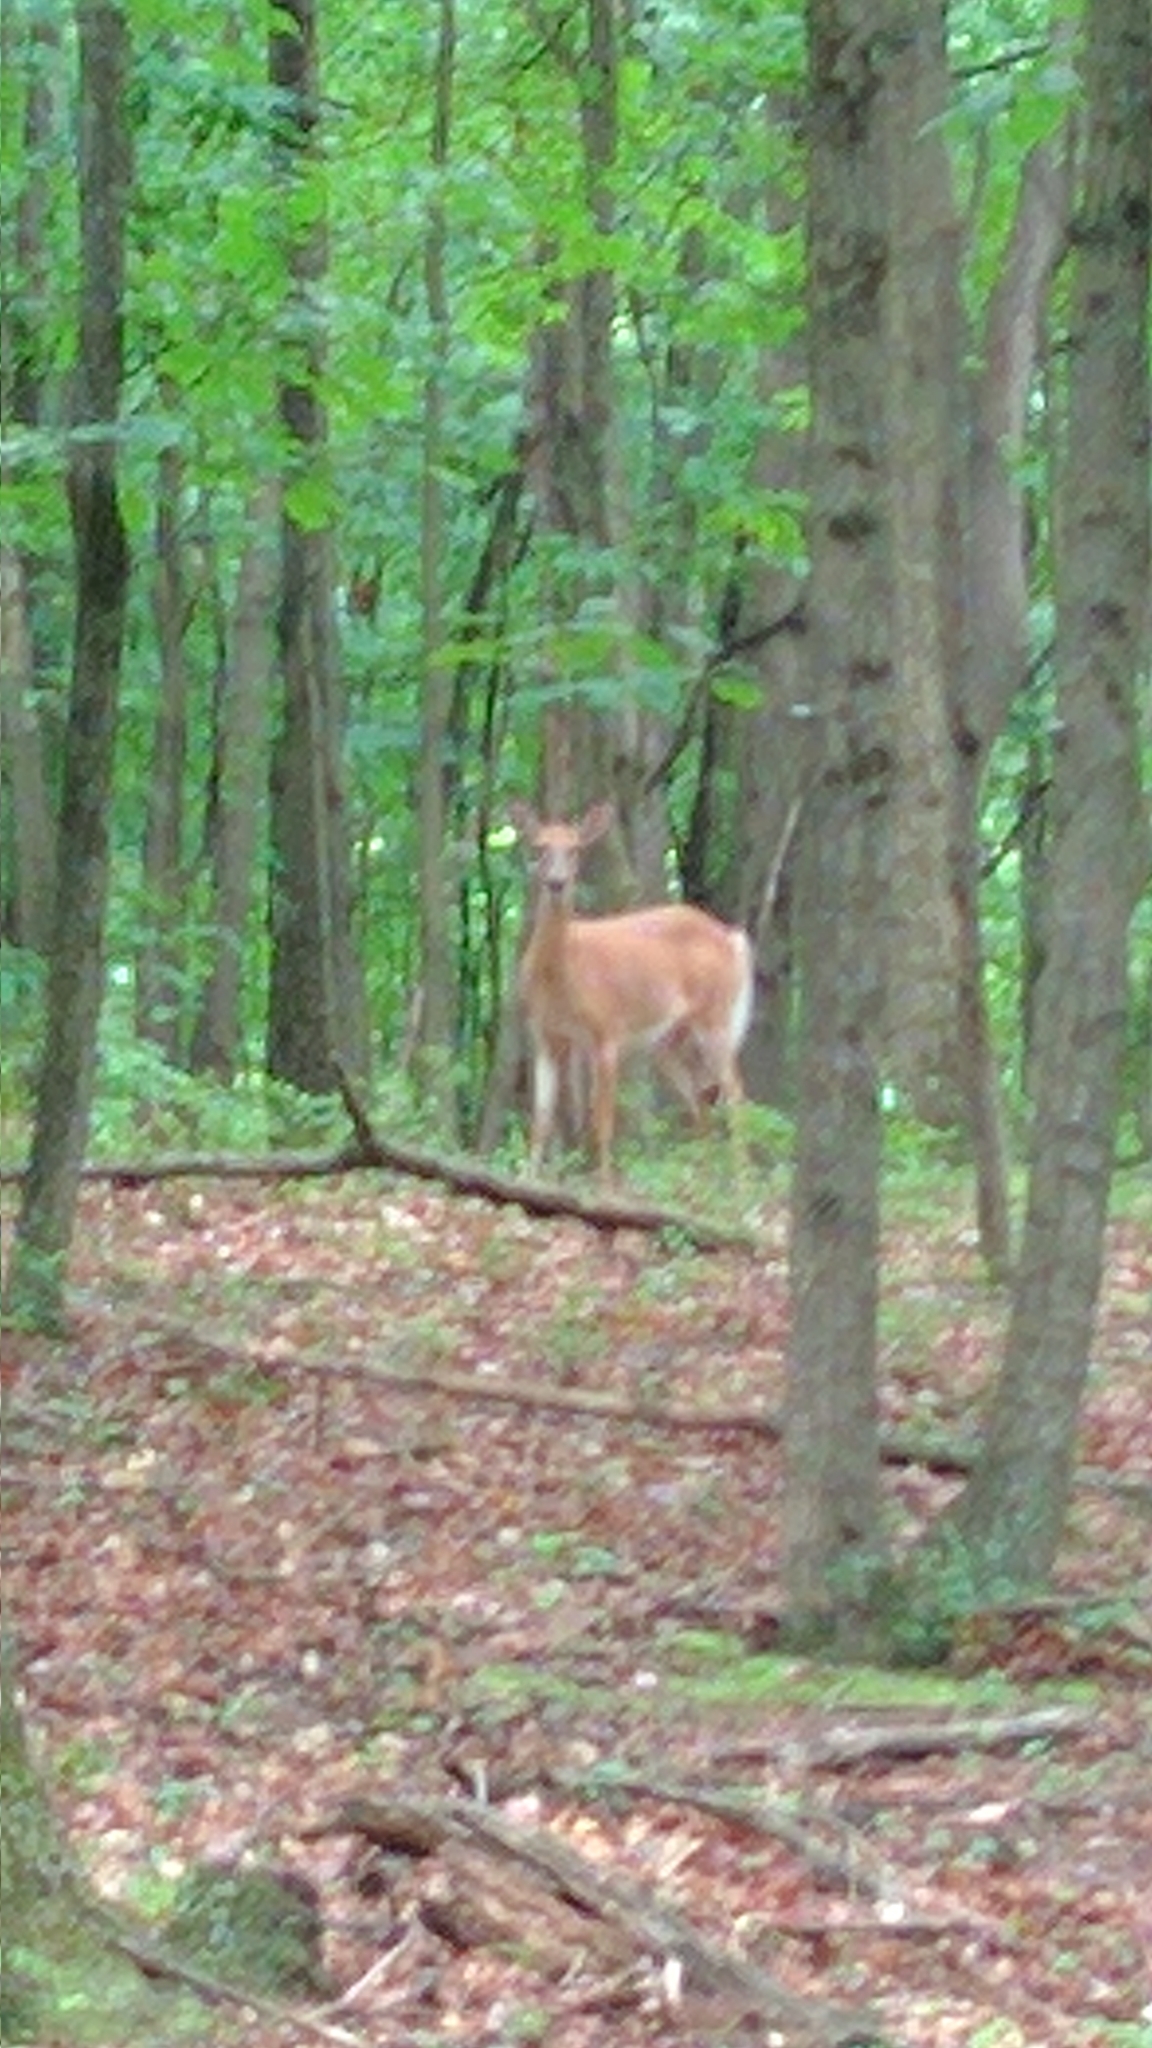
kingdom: Animalia
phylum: Chordata
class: Mammalia
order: Artiodactyla
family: Cervidae
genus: Odocoileus
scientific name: Odocoileus virginianus
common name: White-tailed deer
